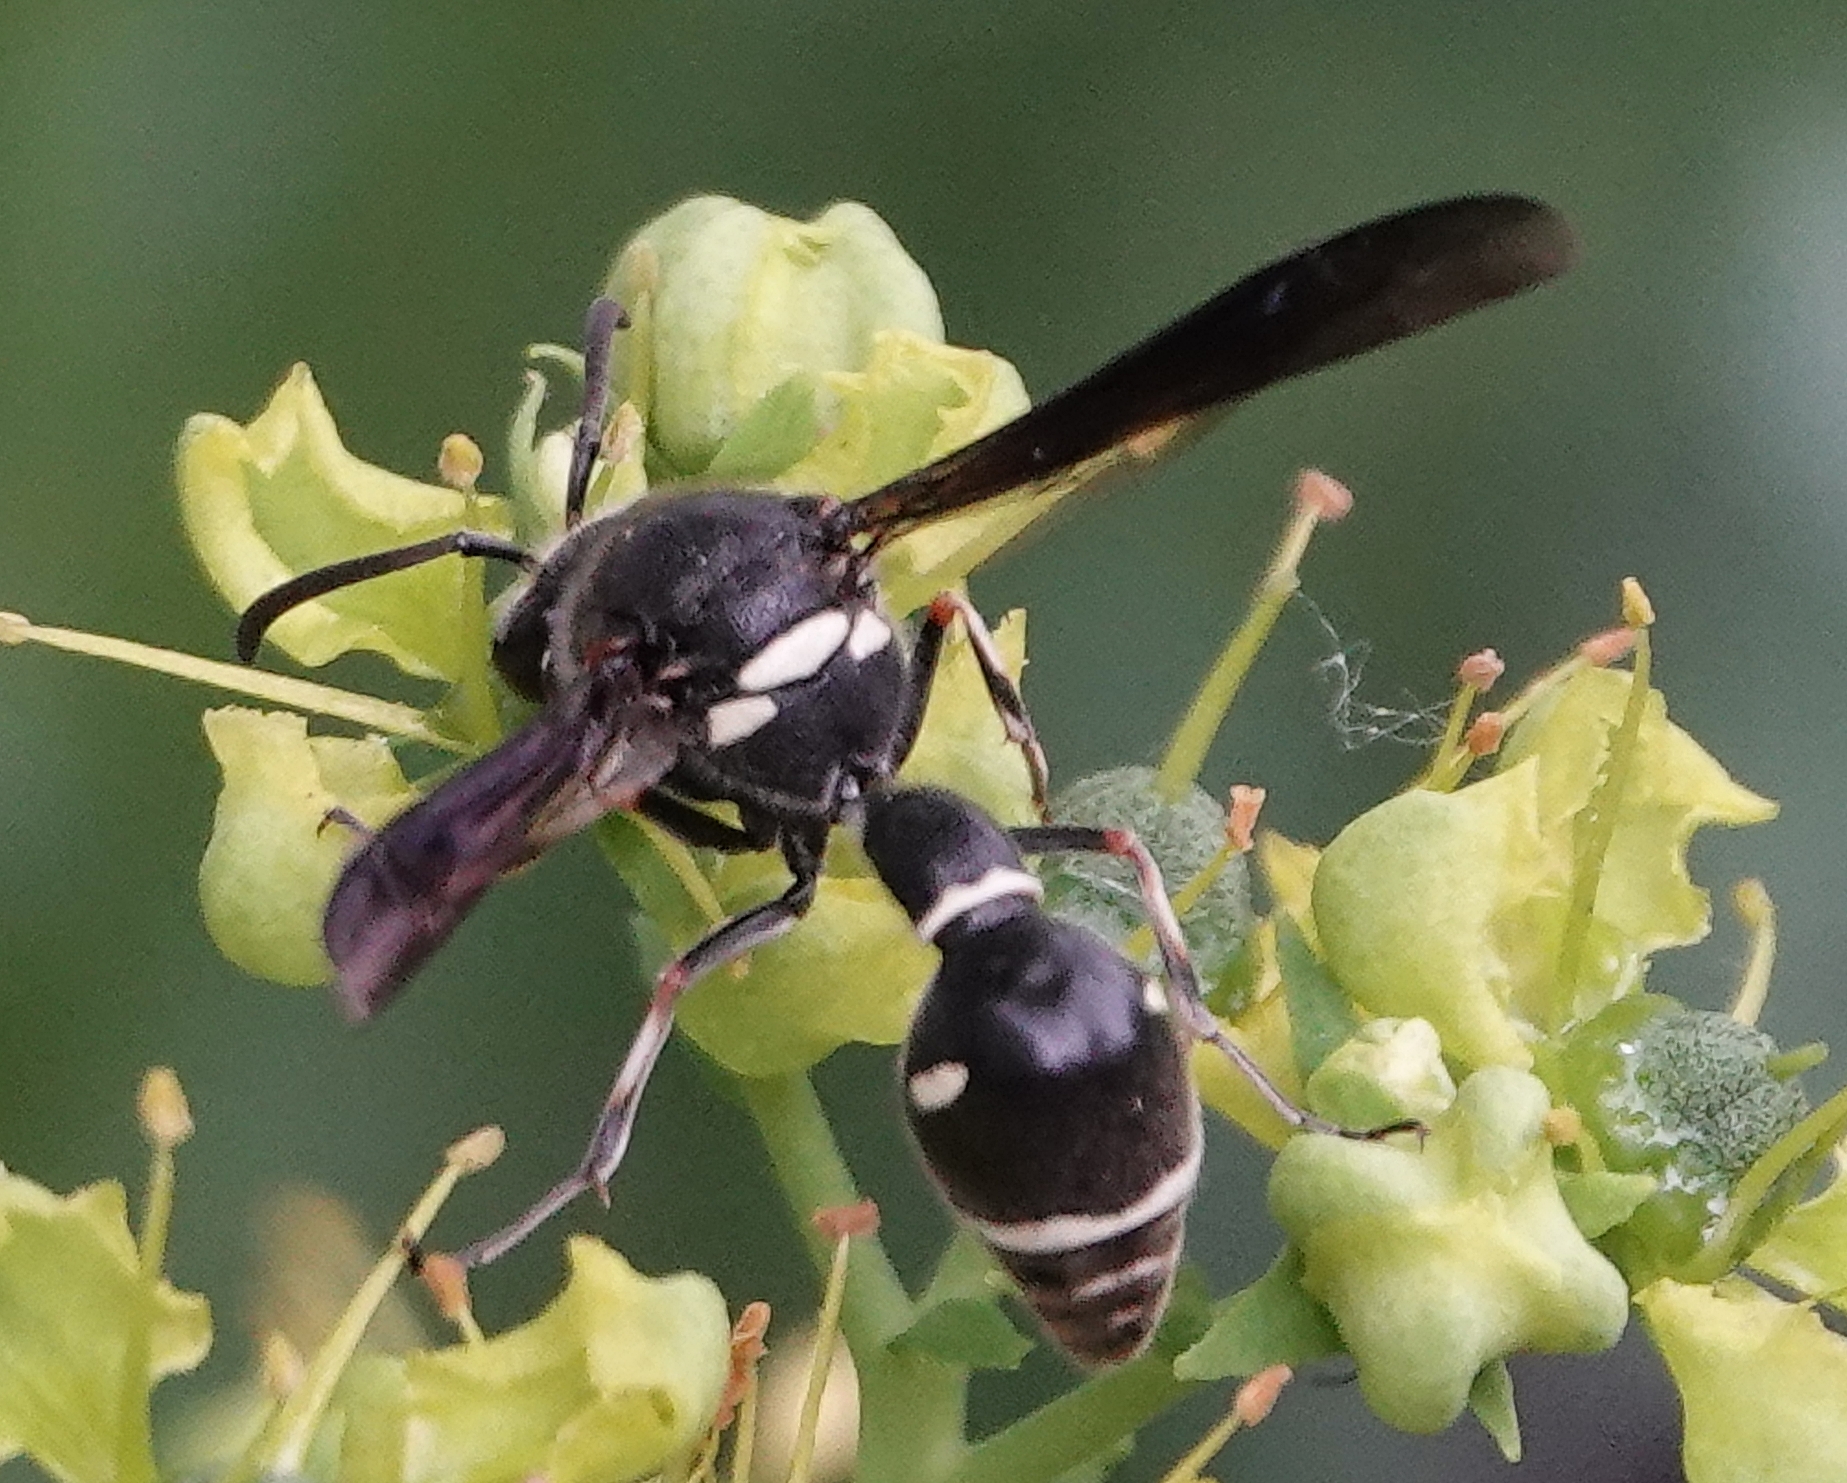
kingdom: Animalia
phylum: Arthropoda
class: Insecta
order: Hymenoptera
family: Vespidae
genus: Eumenes
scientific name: Eumenes fraternus
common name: Fraternal potter wasp
